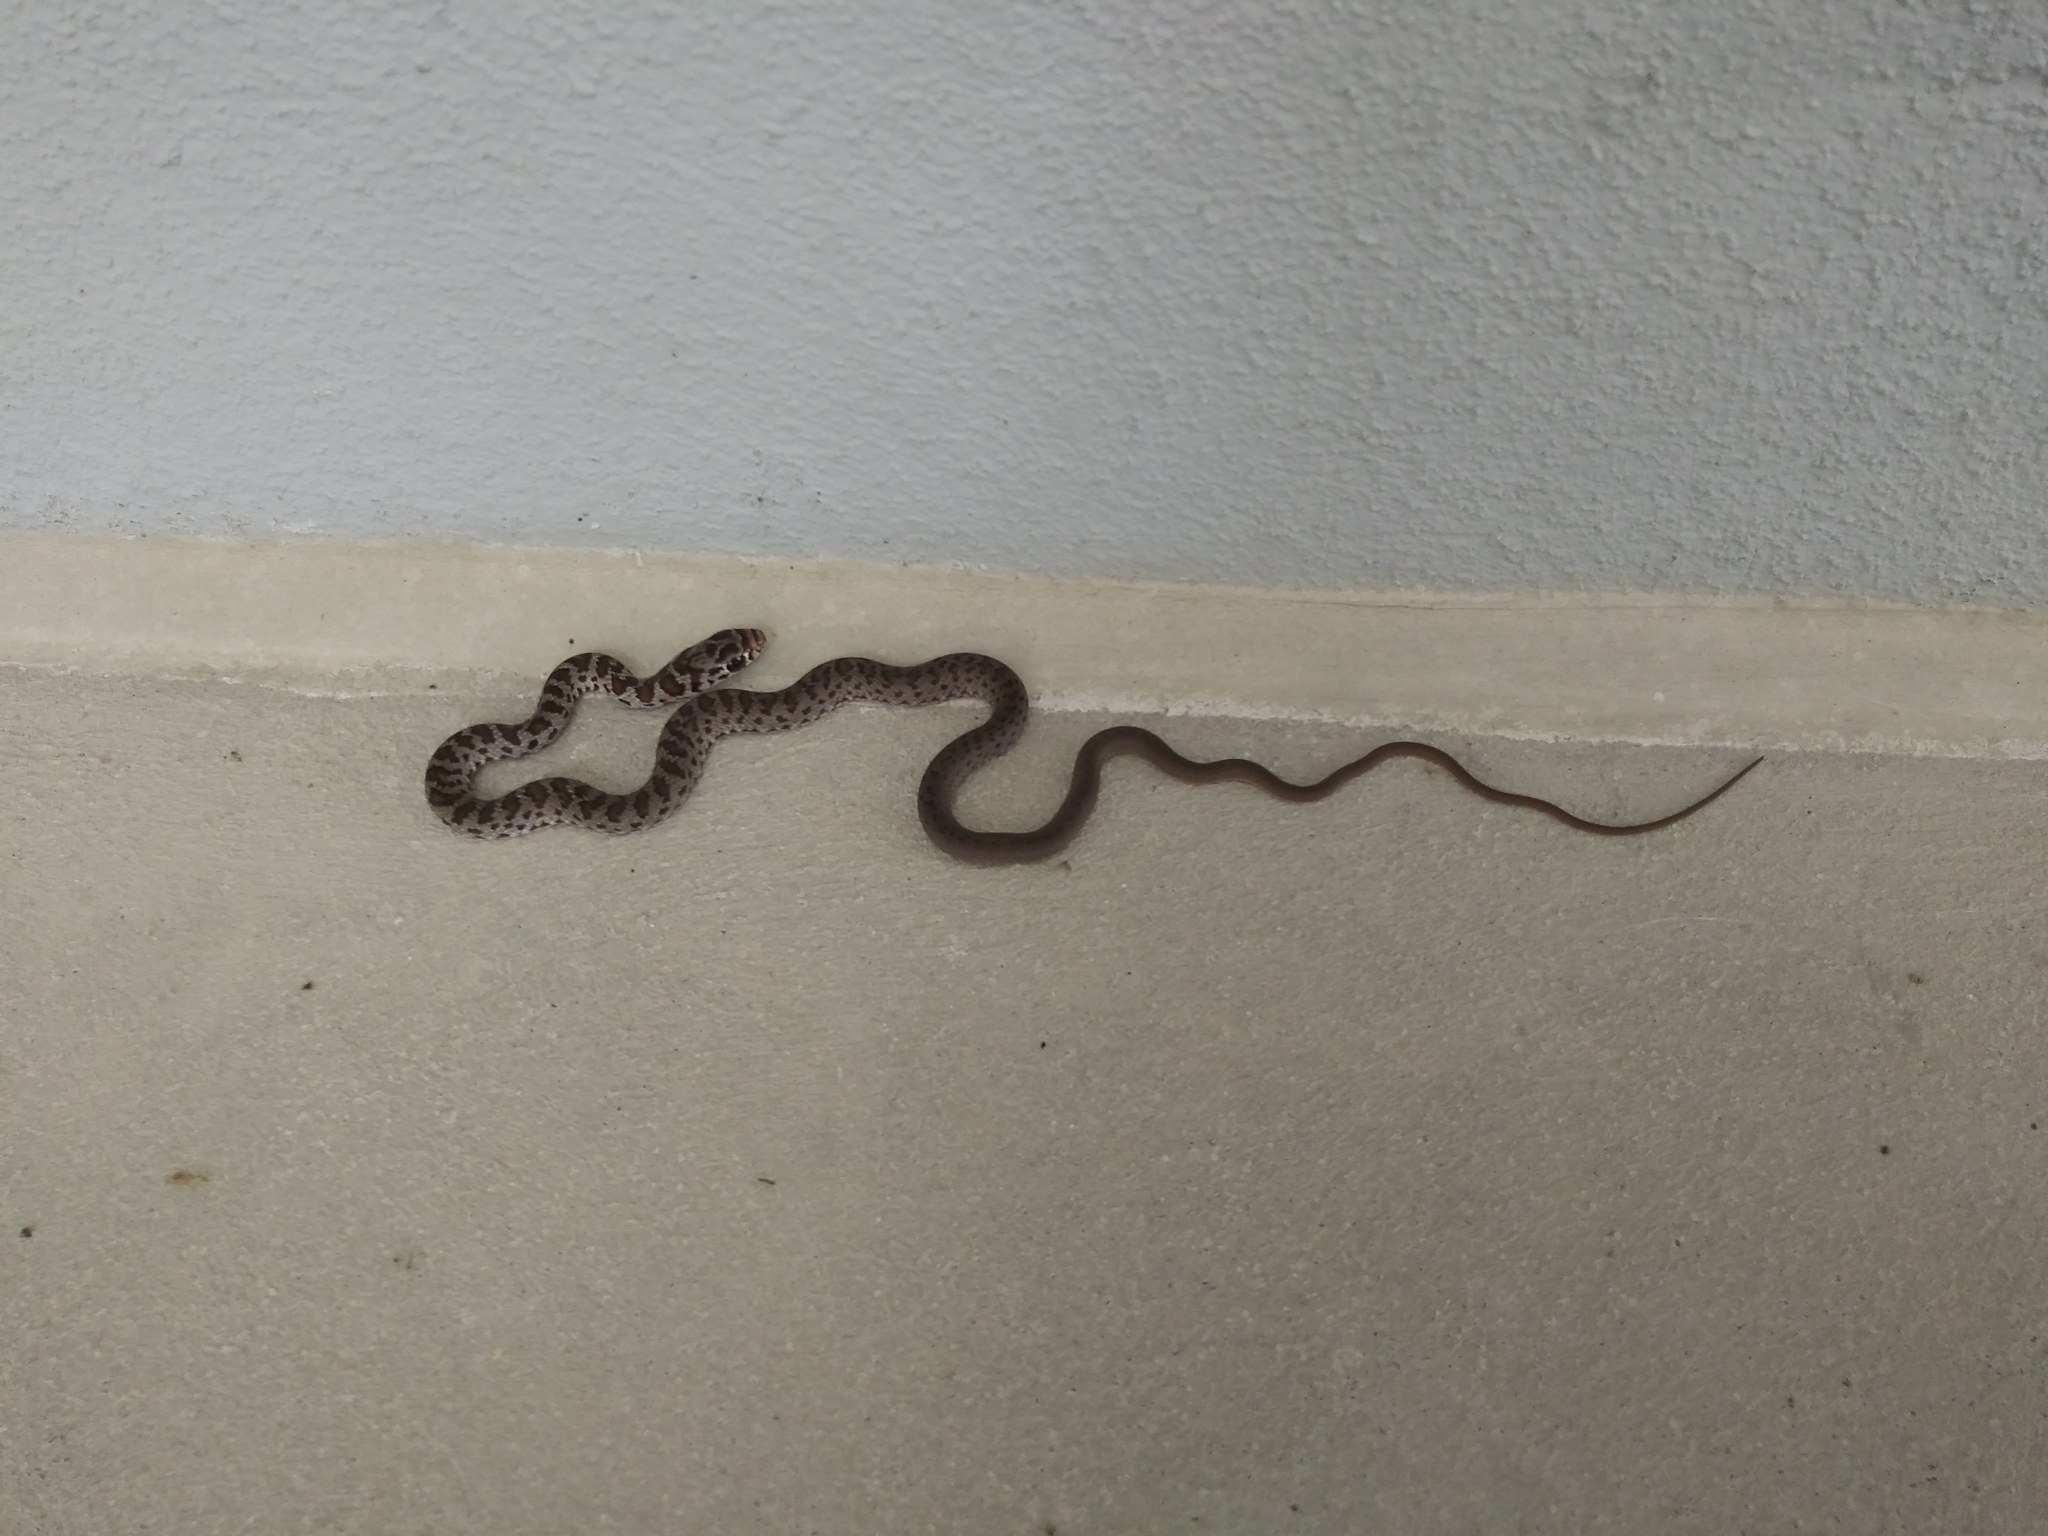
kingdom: Animalia
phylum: Chordata
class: Squamata
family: Colubridae
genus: Coluber
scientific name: Coluber constrictor
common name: Eastern racer
